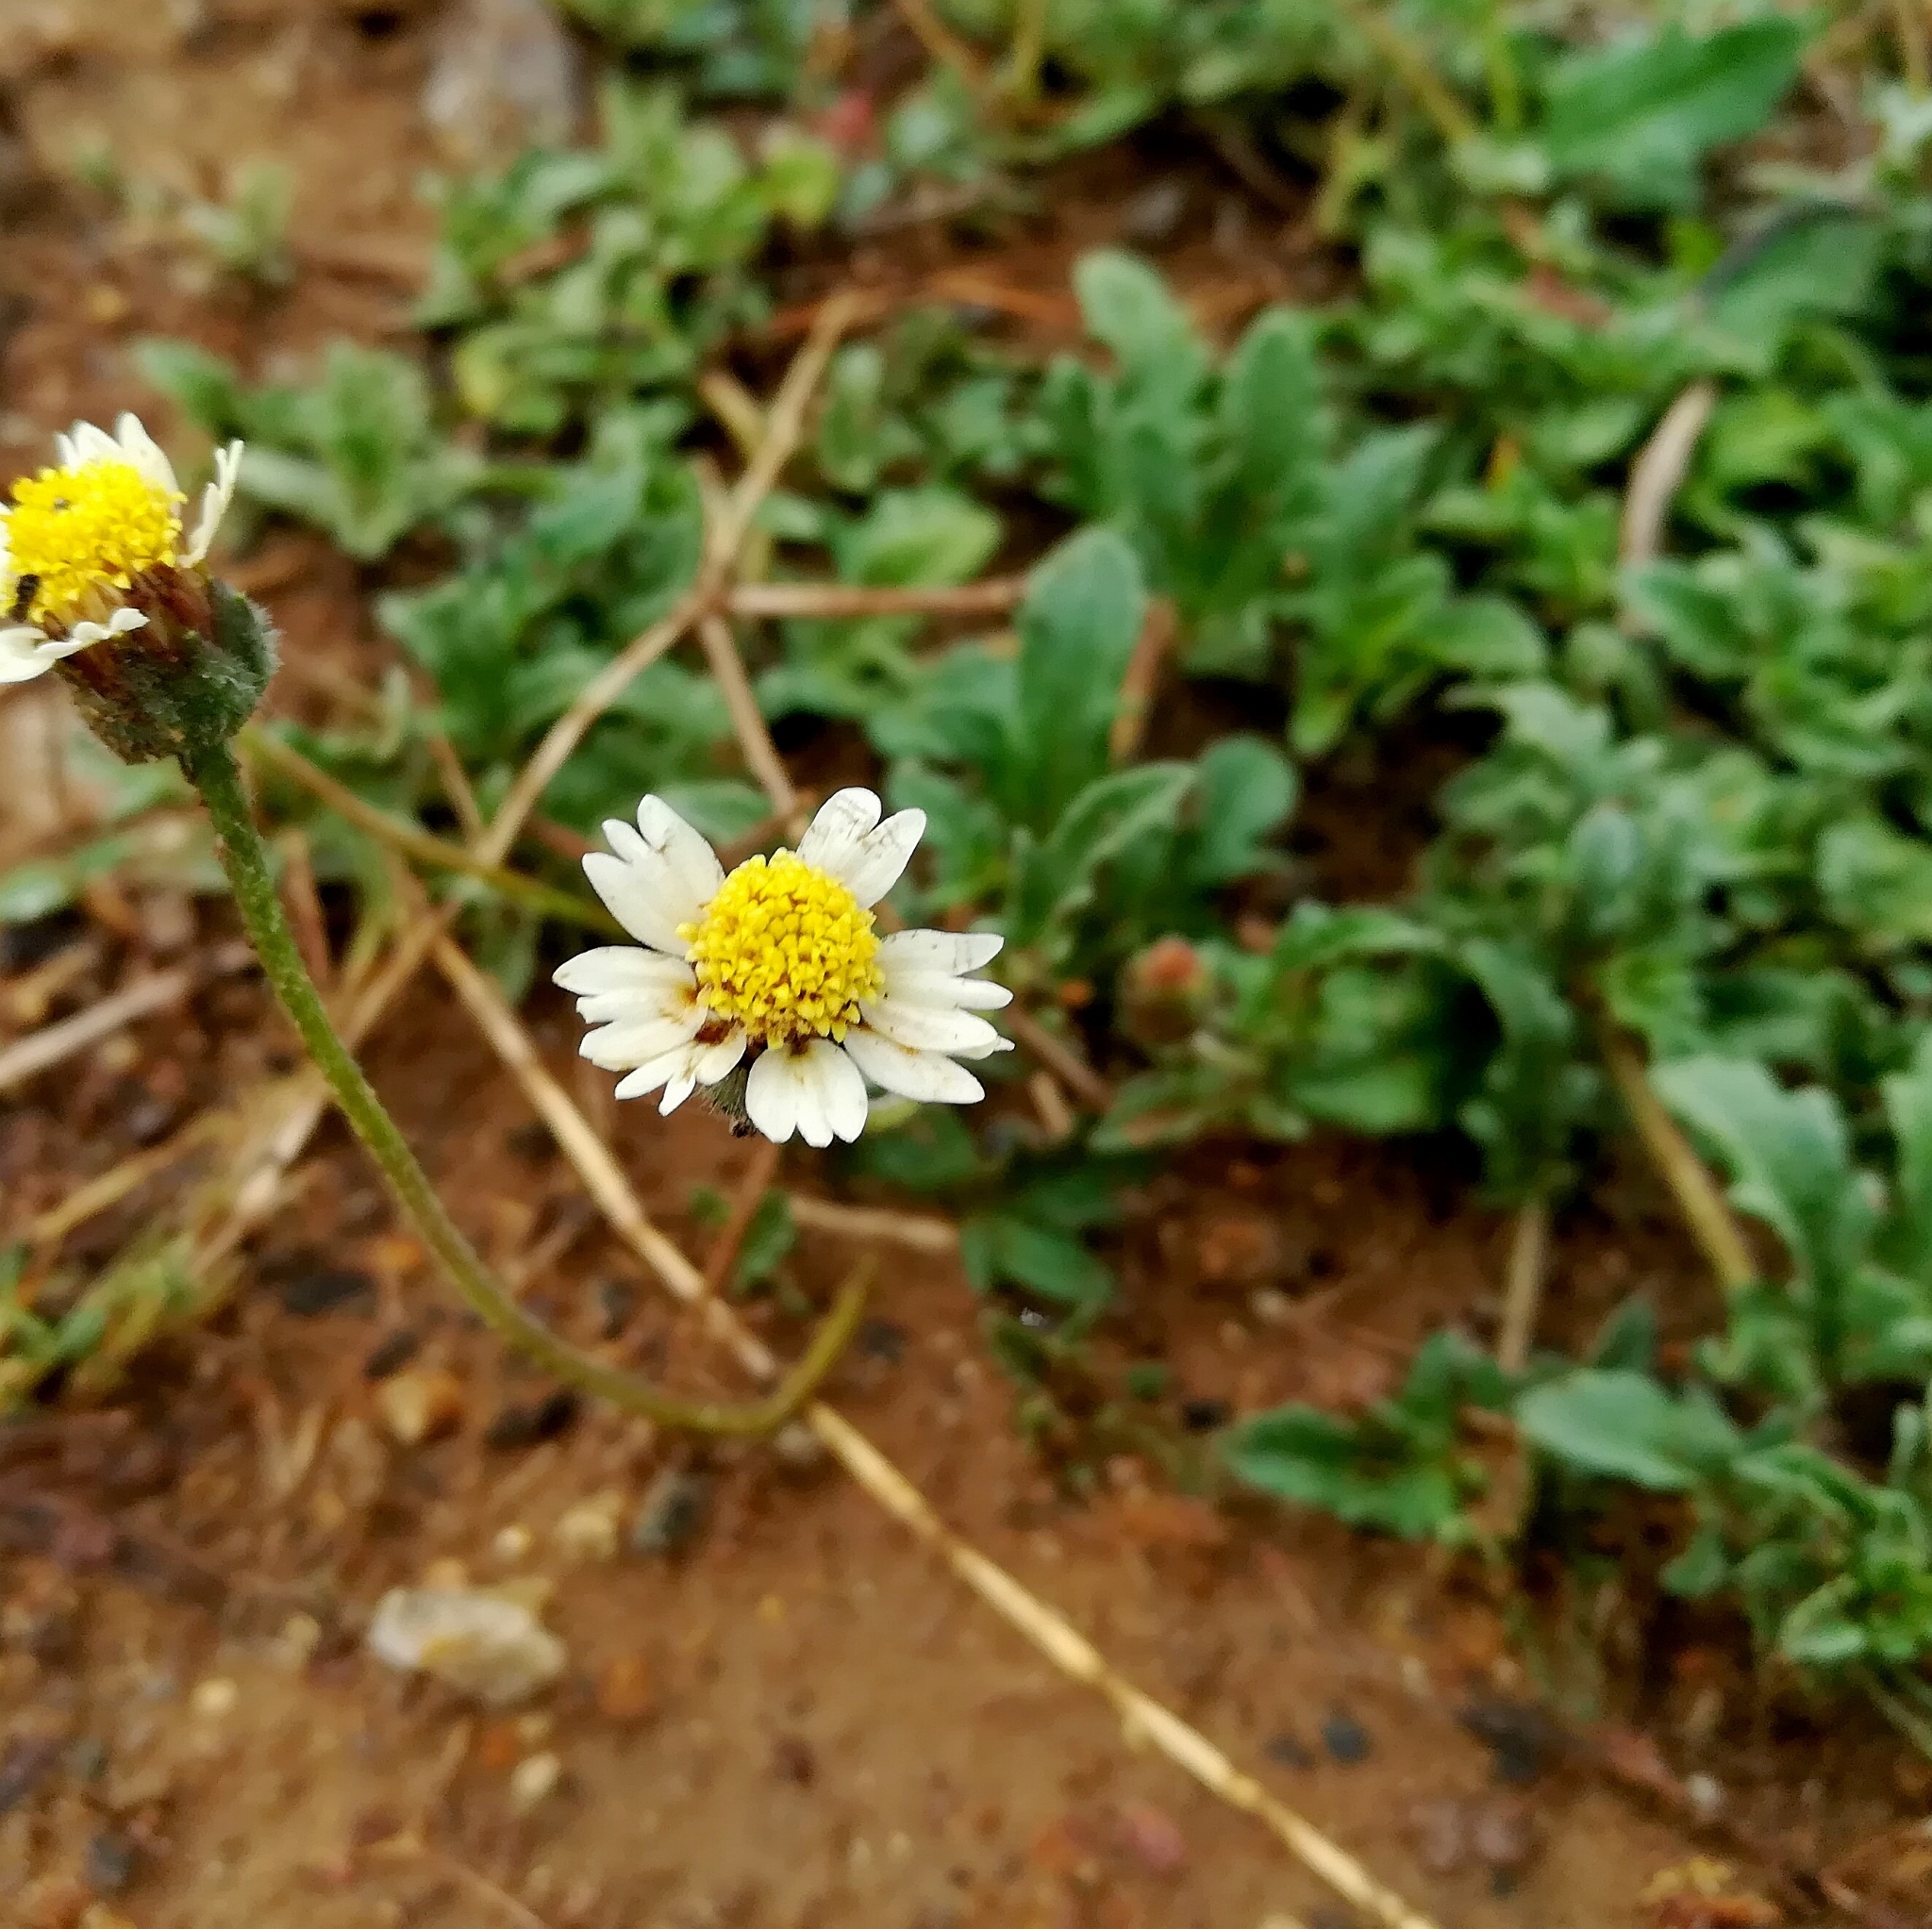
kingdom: Plantae
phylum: Tracheophyta
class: Magnoliopsida
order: Asterales
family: Asteraceae
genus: Tridax
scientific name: Tridax procumbens
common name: Coatbuttons
